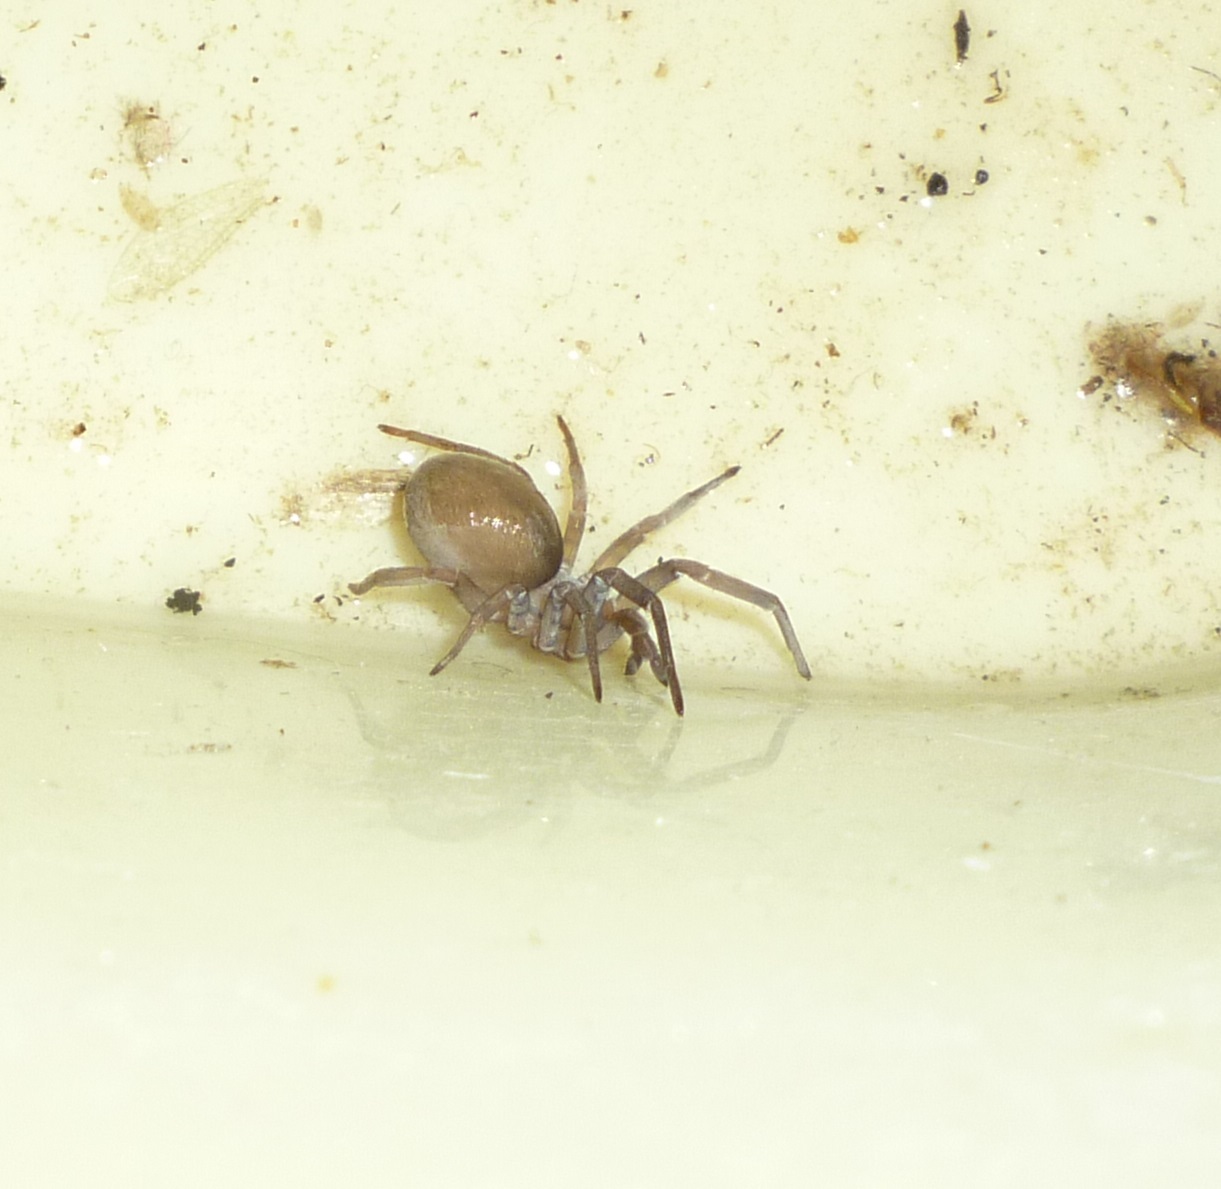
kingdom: Animalia
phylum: Arthropoda
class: Arachnida
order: Araneae
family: Filistatidae
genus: Filistata
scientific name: Filistata insidiatrix
